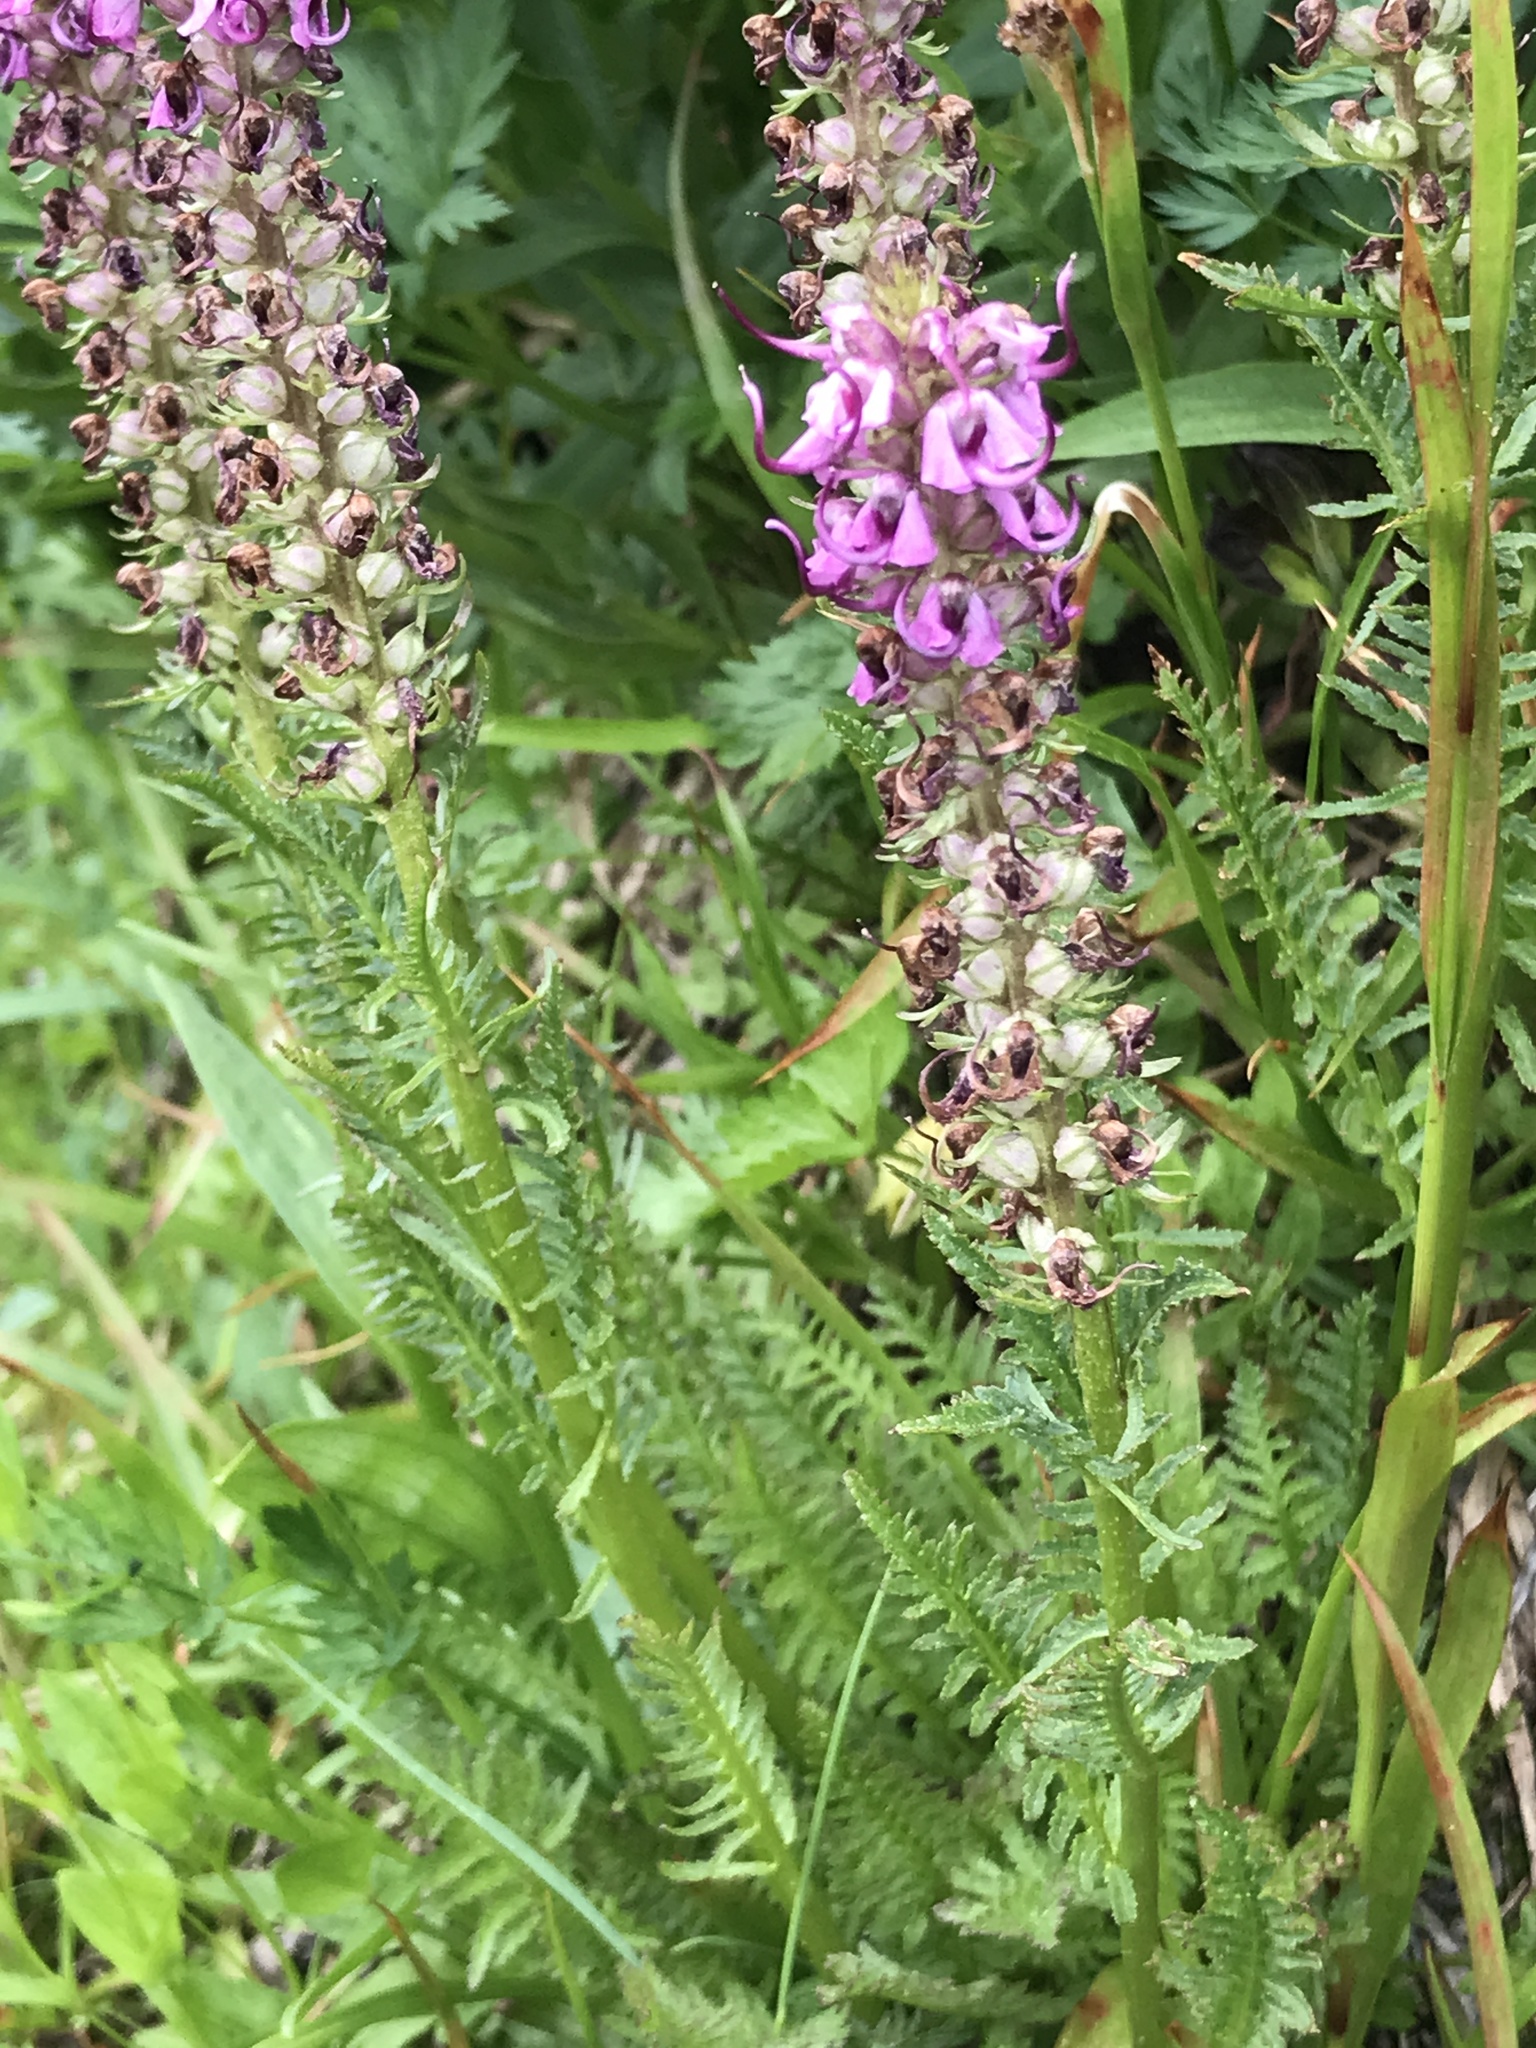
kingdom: Plantae
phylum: Tracheophyta
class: Magnoliopsida
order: Lamiales
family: Orobanchaceae
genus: Pedicularis
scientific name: Pedicularis groenlandica
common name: Elephant's-head
